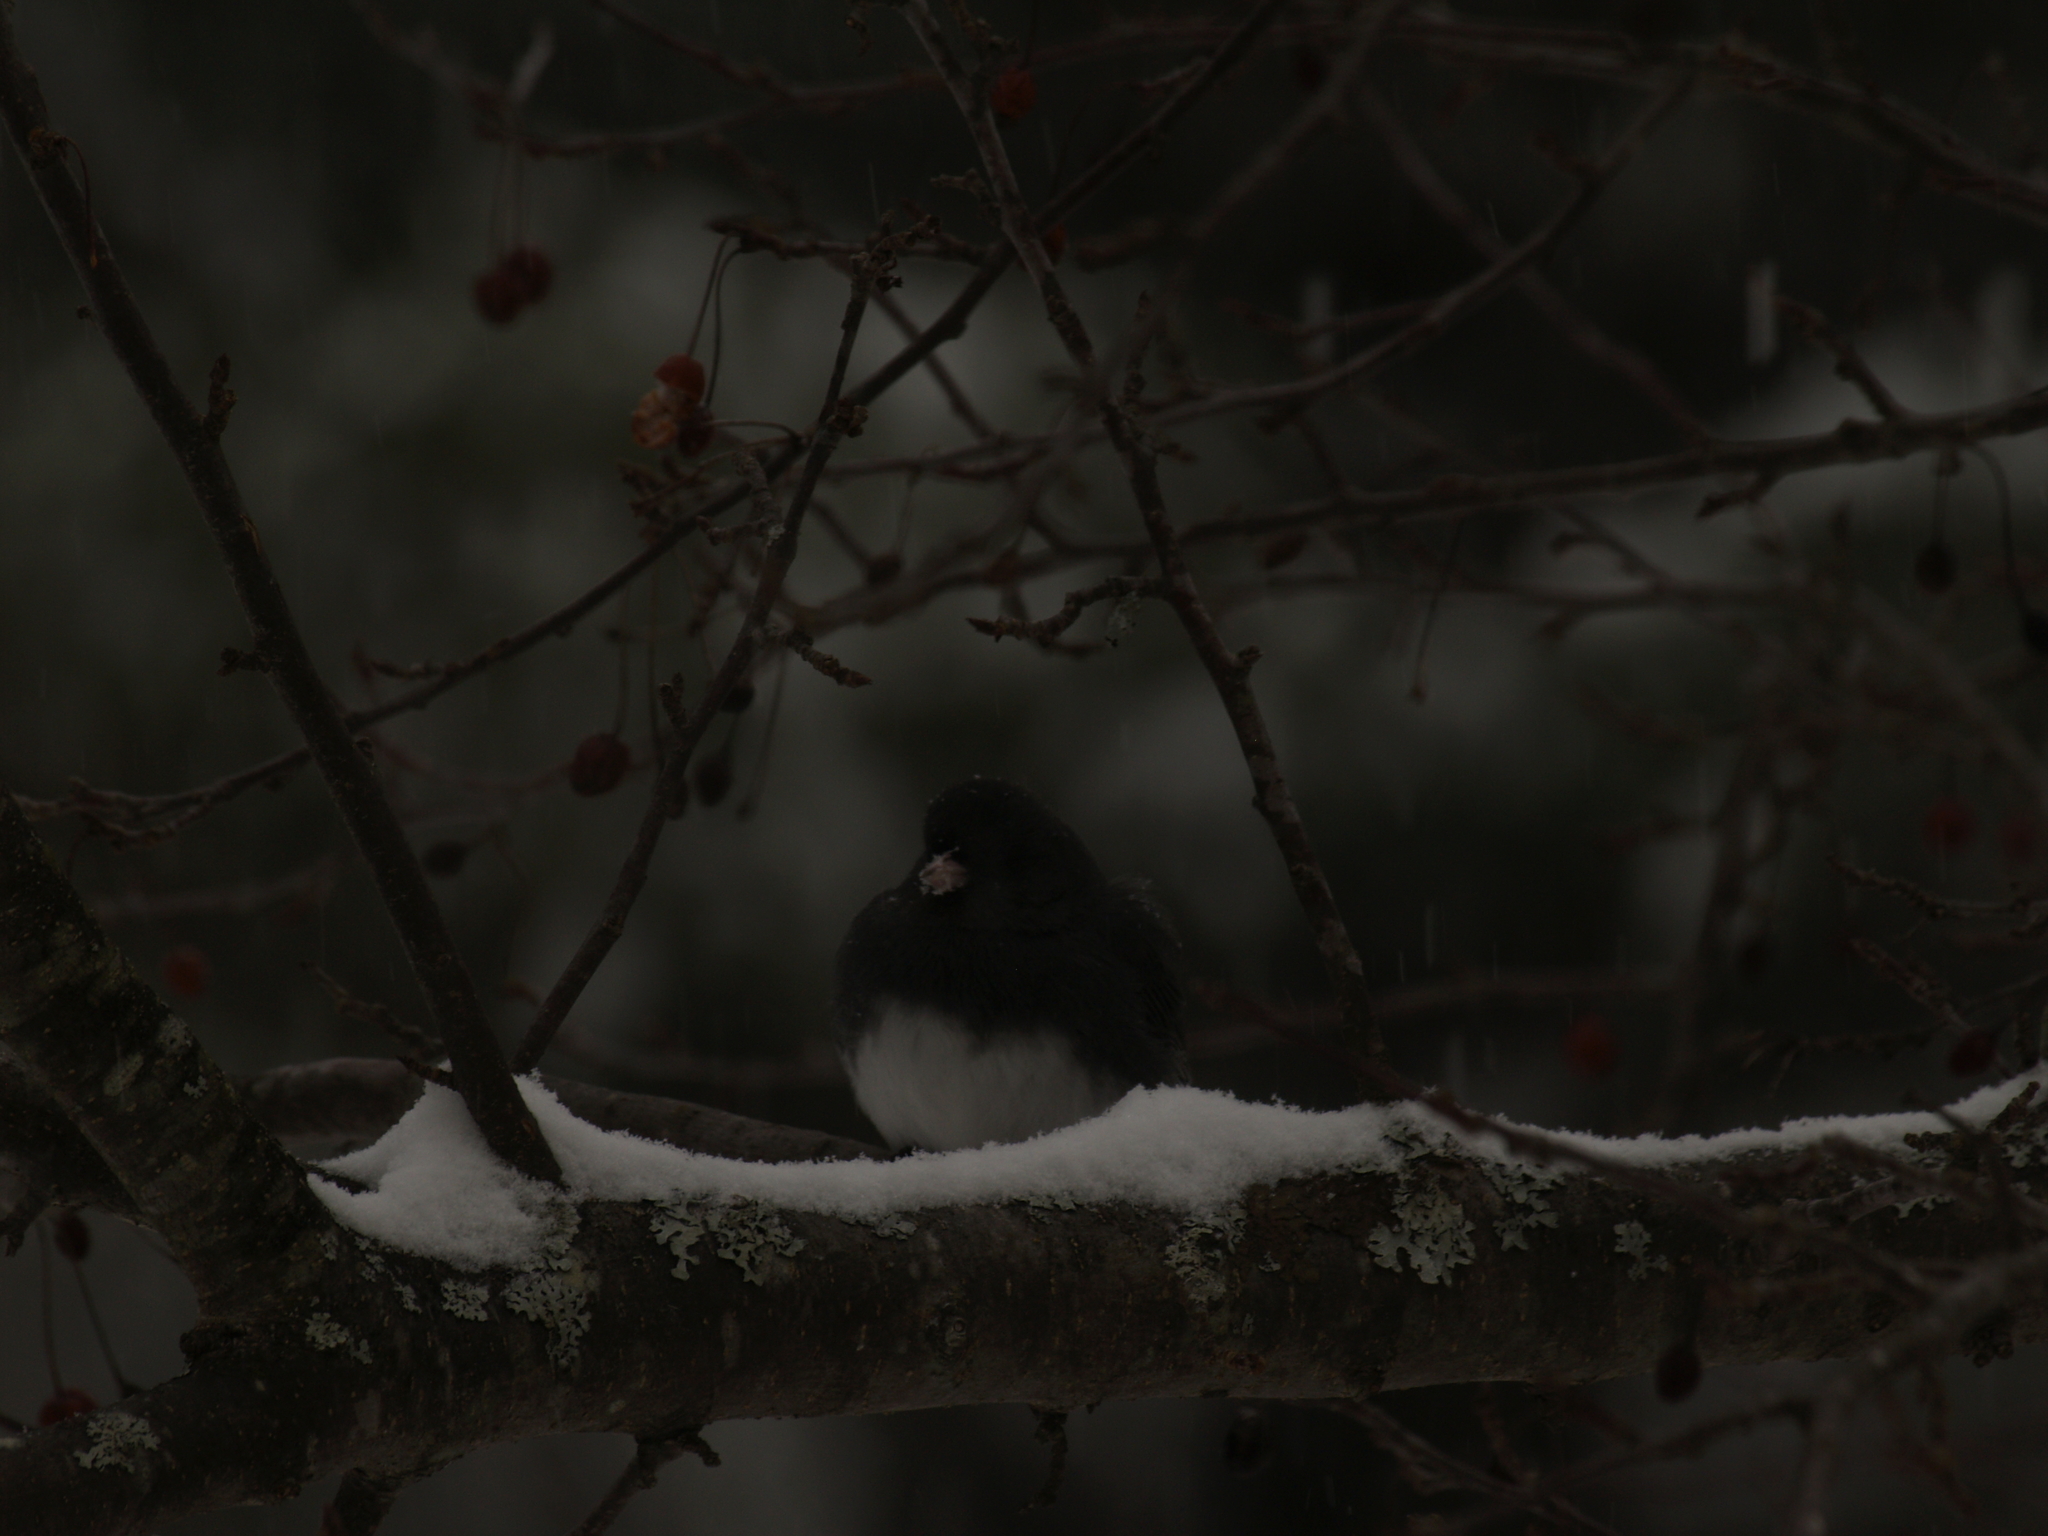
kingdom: Animalia
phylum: Chordata
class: Aves
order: Passeriformes
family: Passerellidae
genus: Junco
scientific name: Junco hyemalis
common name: Dark-eyed junco
